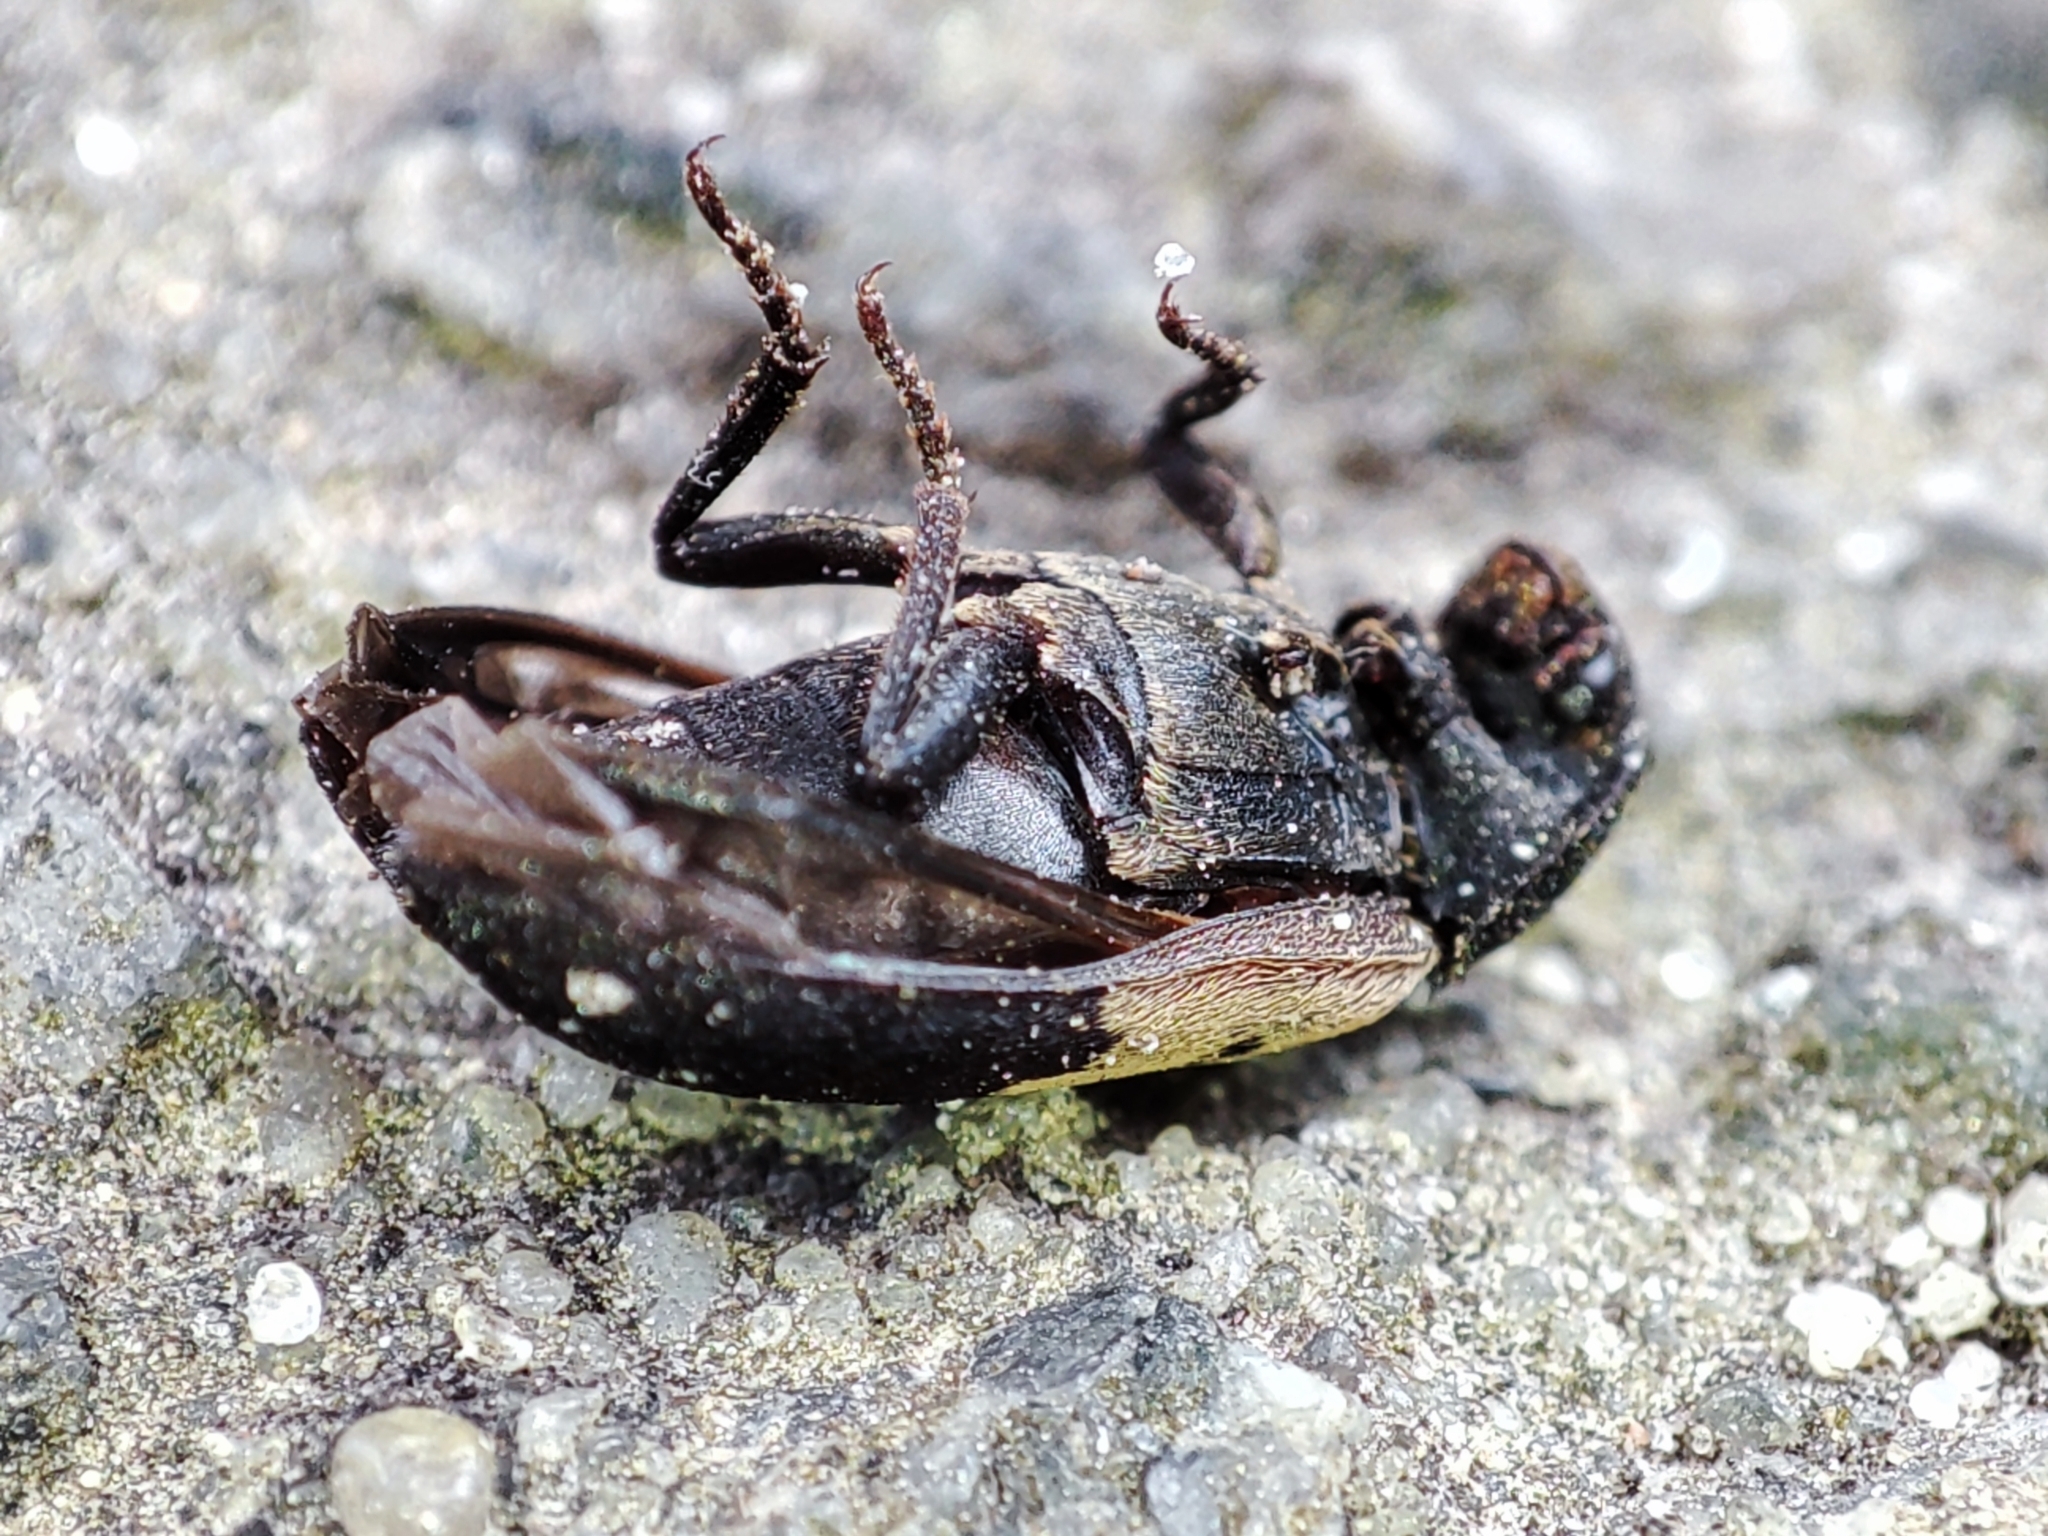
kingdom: Animalia
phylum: Arthropoda
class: Insecta
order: Coleoptera
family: Dermestidae
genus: Dermestes
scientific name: Dermestes lardarius
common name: Larder beetle
